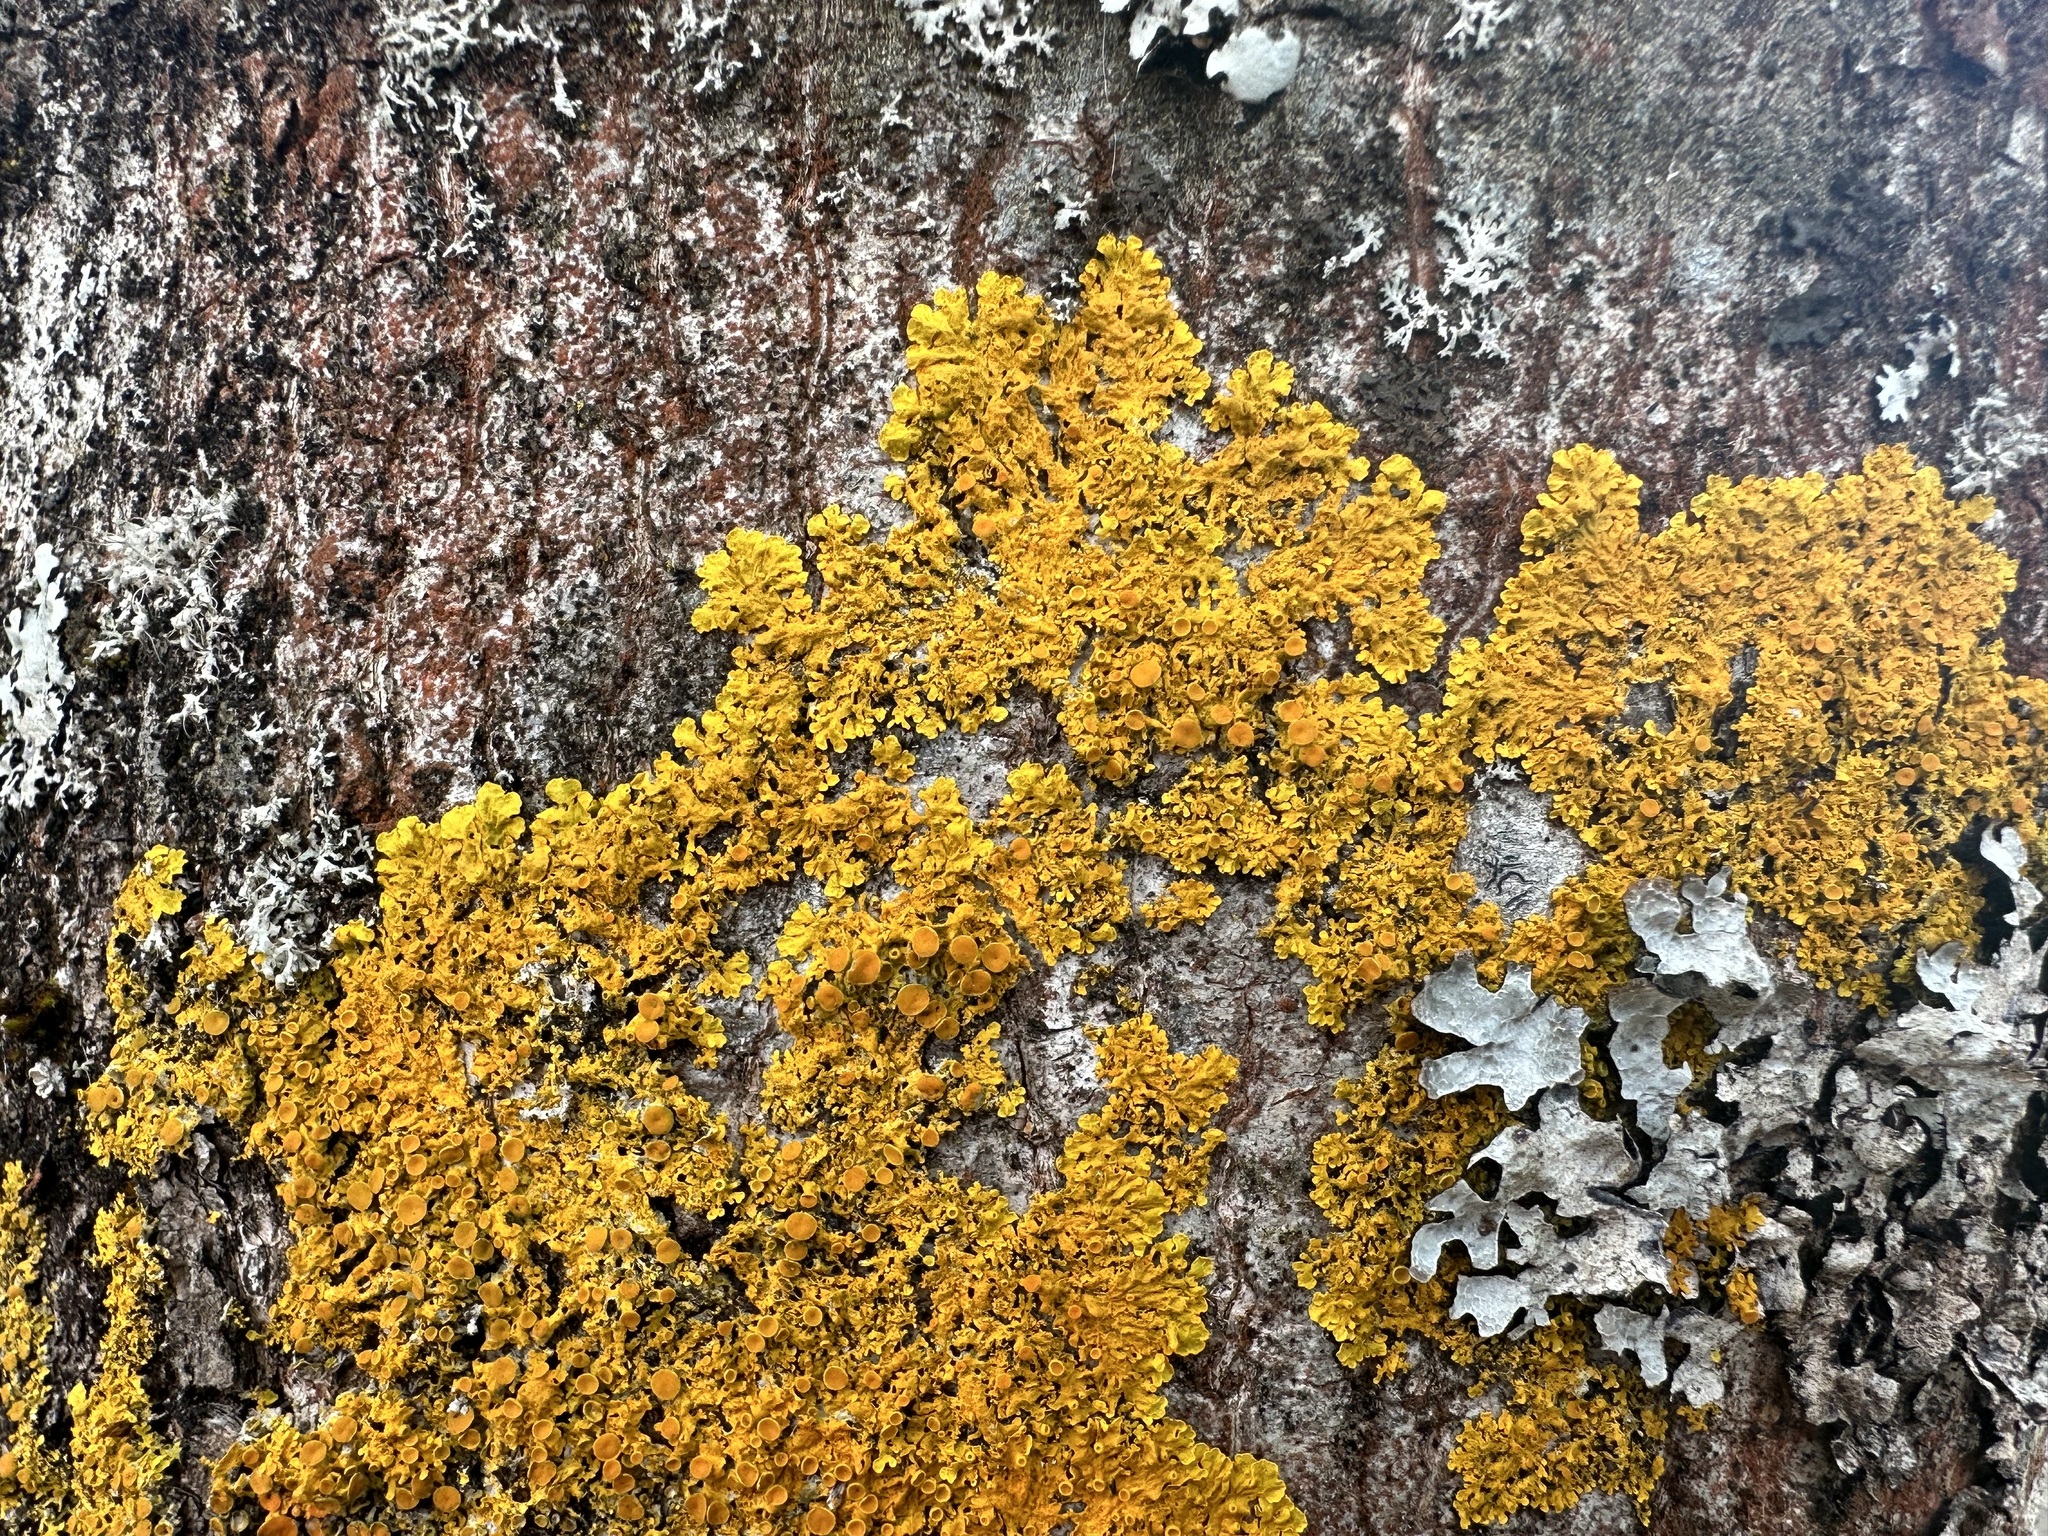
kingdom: Fungi
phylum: Ascomycota
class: Lecanoromycetes
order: Teloschistales
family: Teloschistaceae
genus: Xanthoria
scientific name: Xanthoria parietina
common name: Common orange lichen
